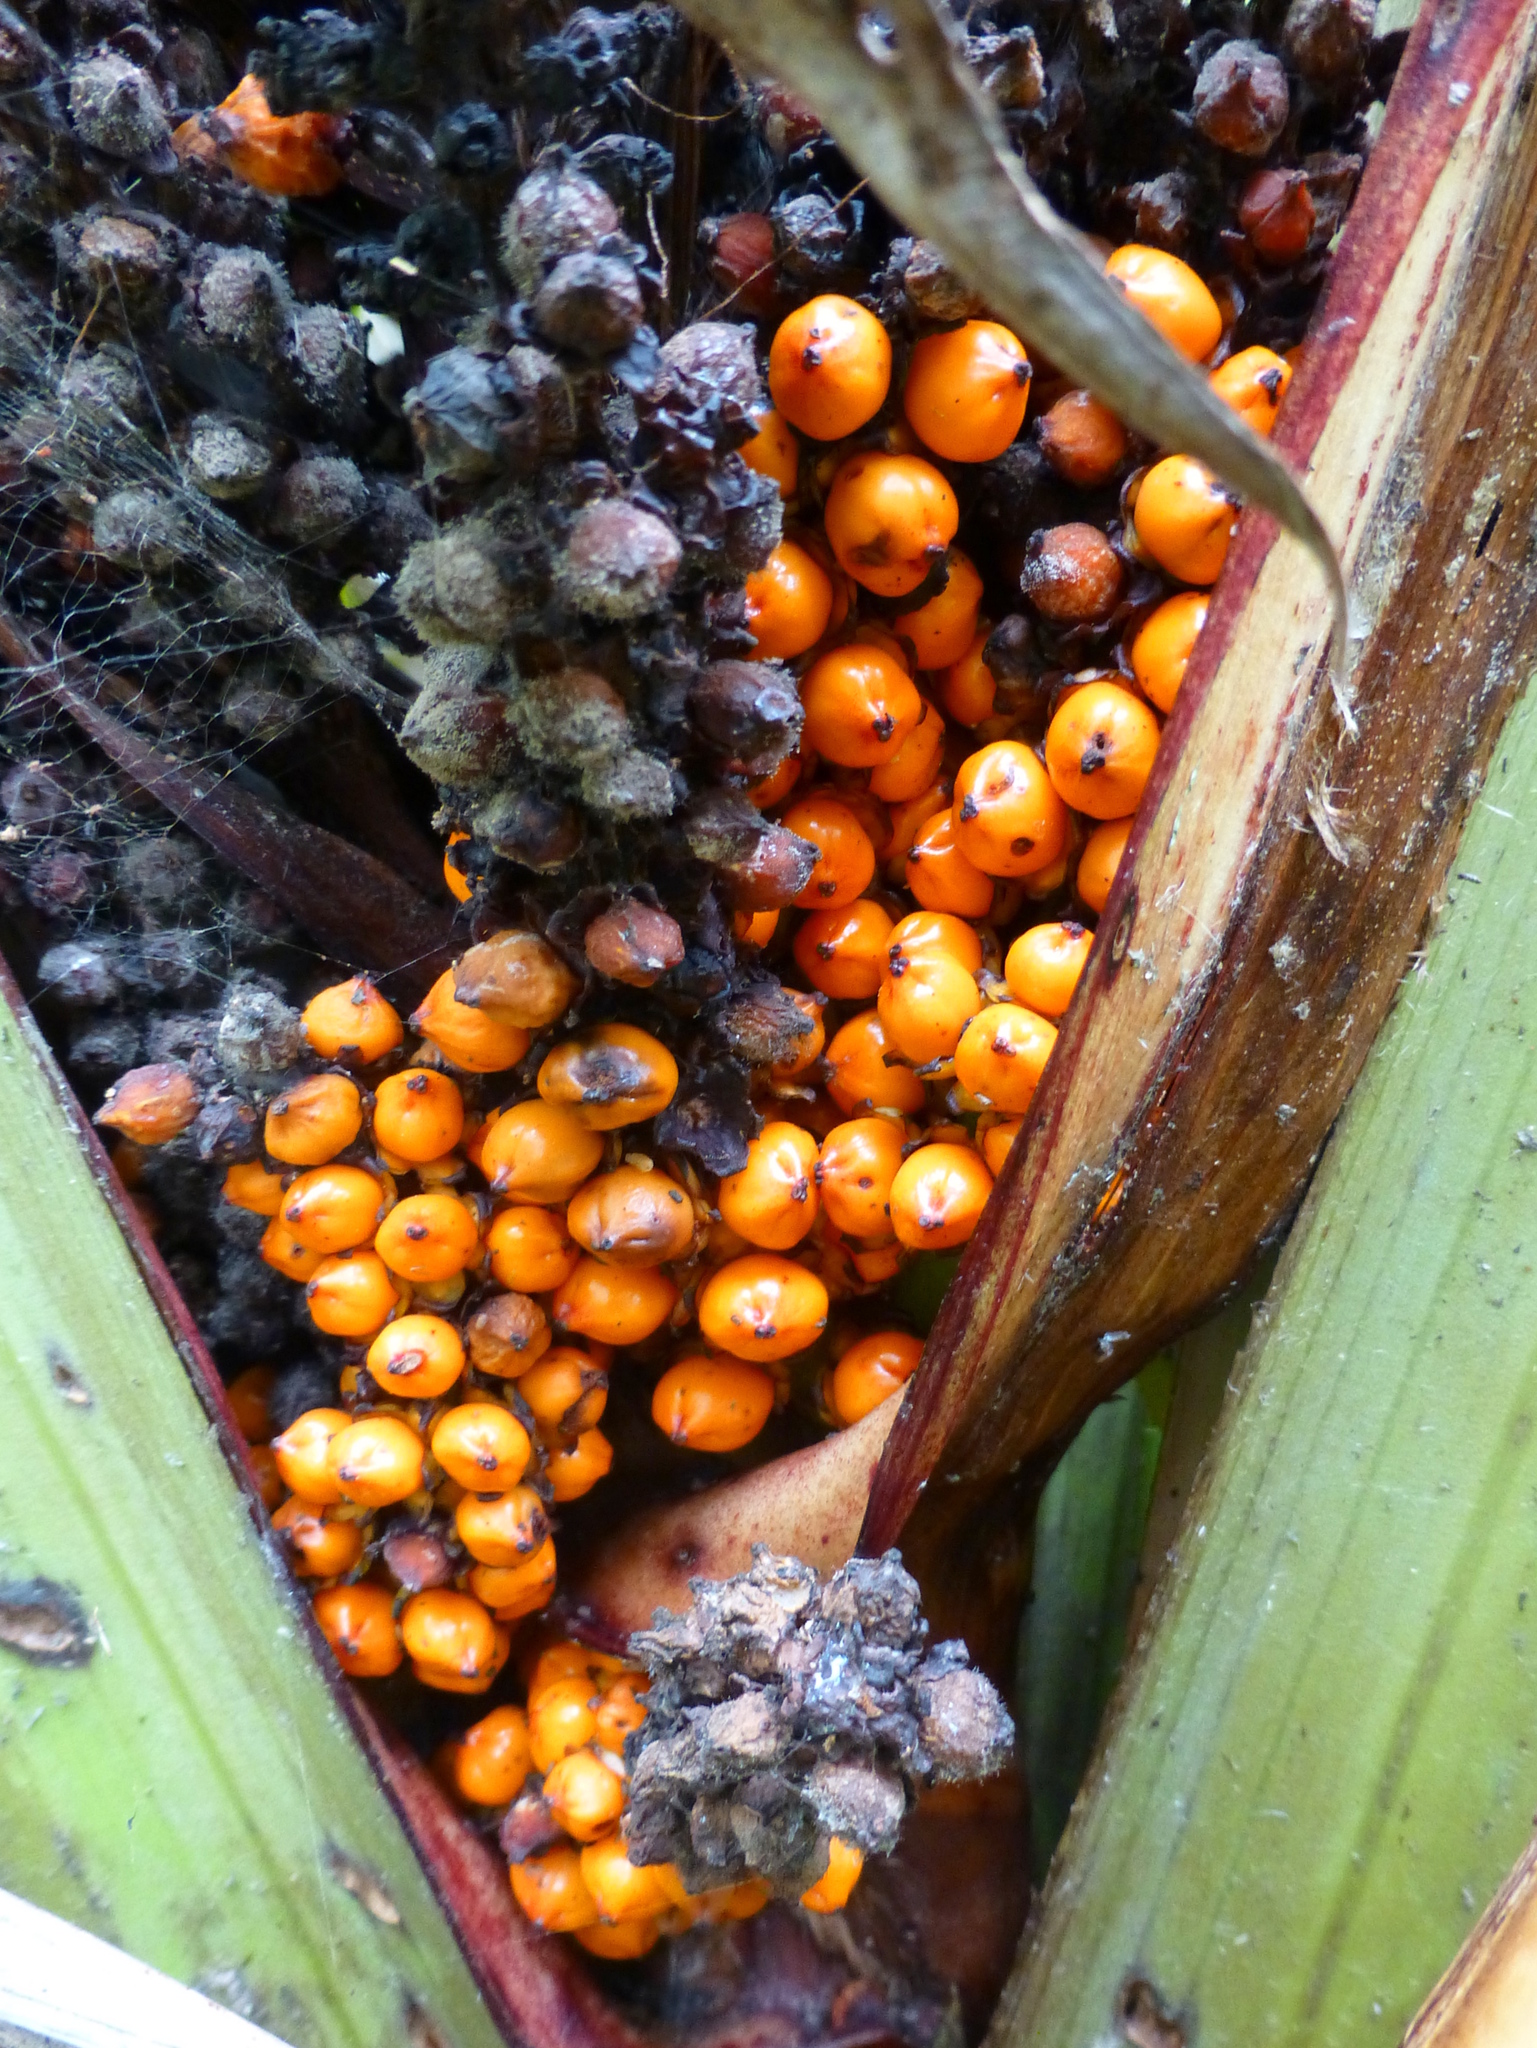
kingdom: Plantae
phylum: Tracheophyta
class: Liliopsida
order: Asparagales
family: Asteliaceae
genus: Astelia
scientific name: Astelia fragrans
